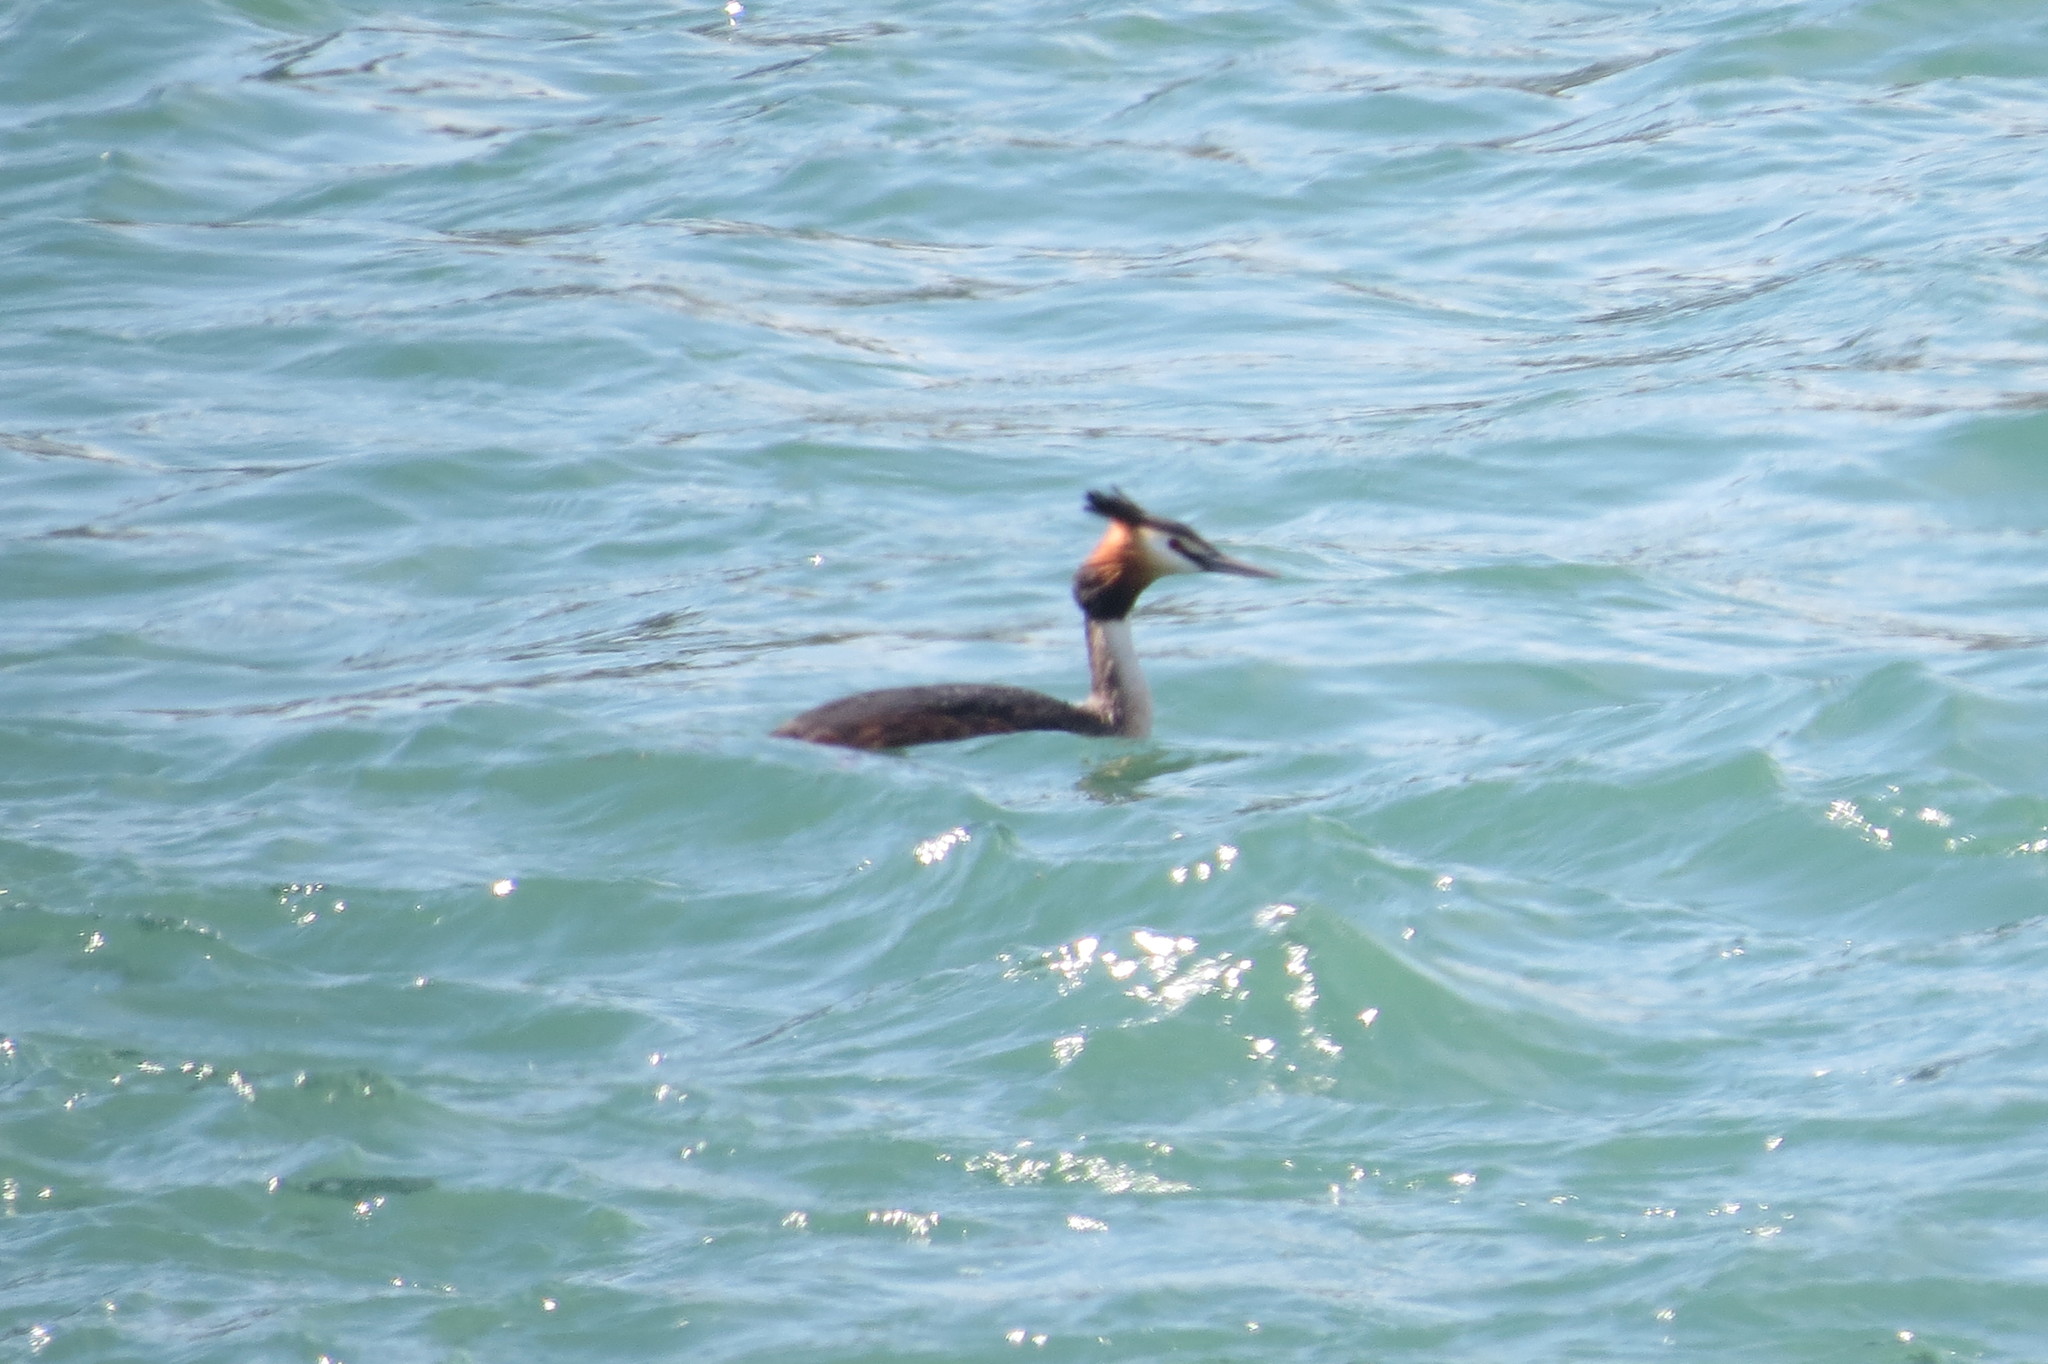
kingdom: Animalia
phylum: Chordata
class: Aves
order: Podicipediformes
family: Podicipedidae
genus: Podiceps
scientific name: Podiceps cristatus
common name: Great crested grebe
